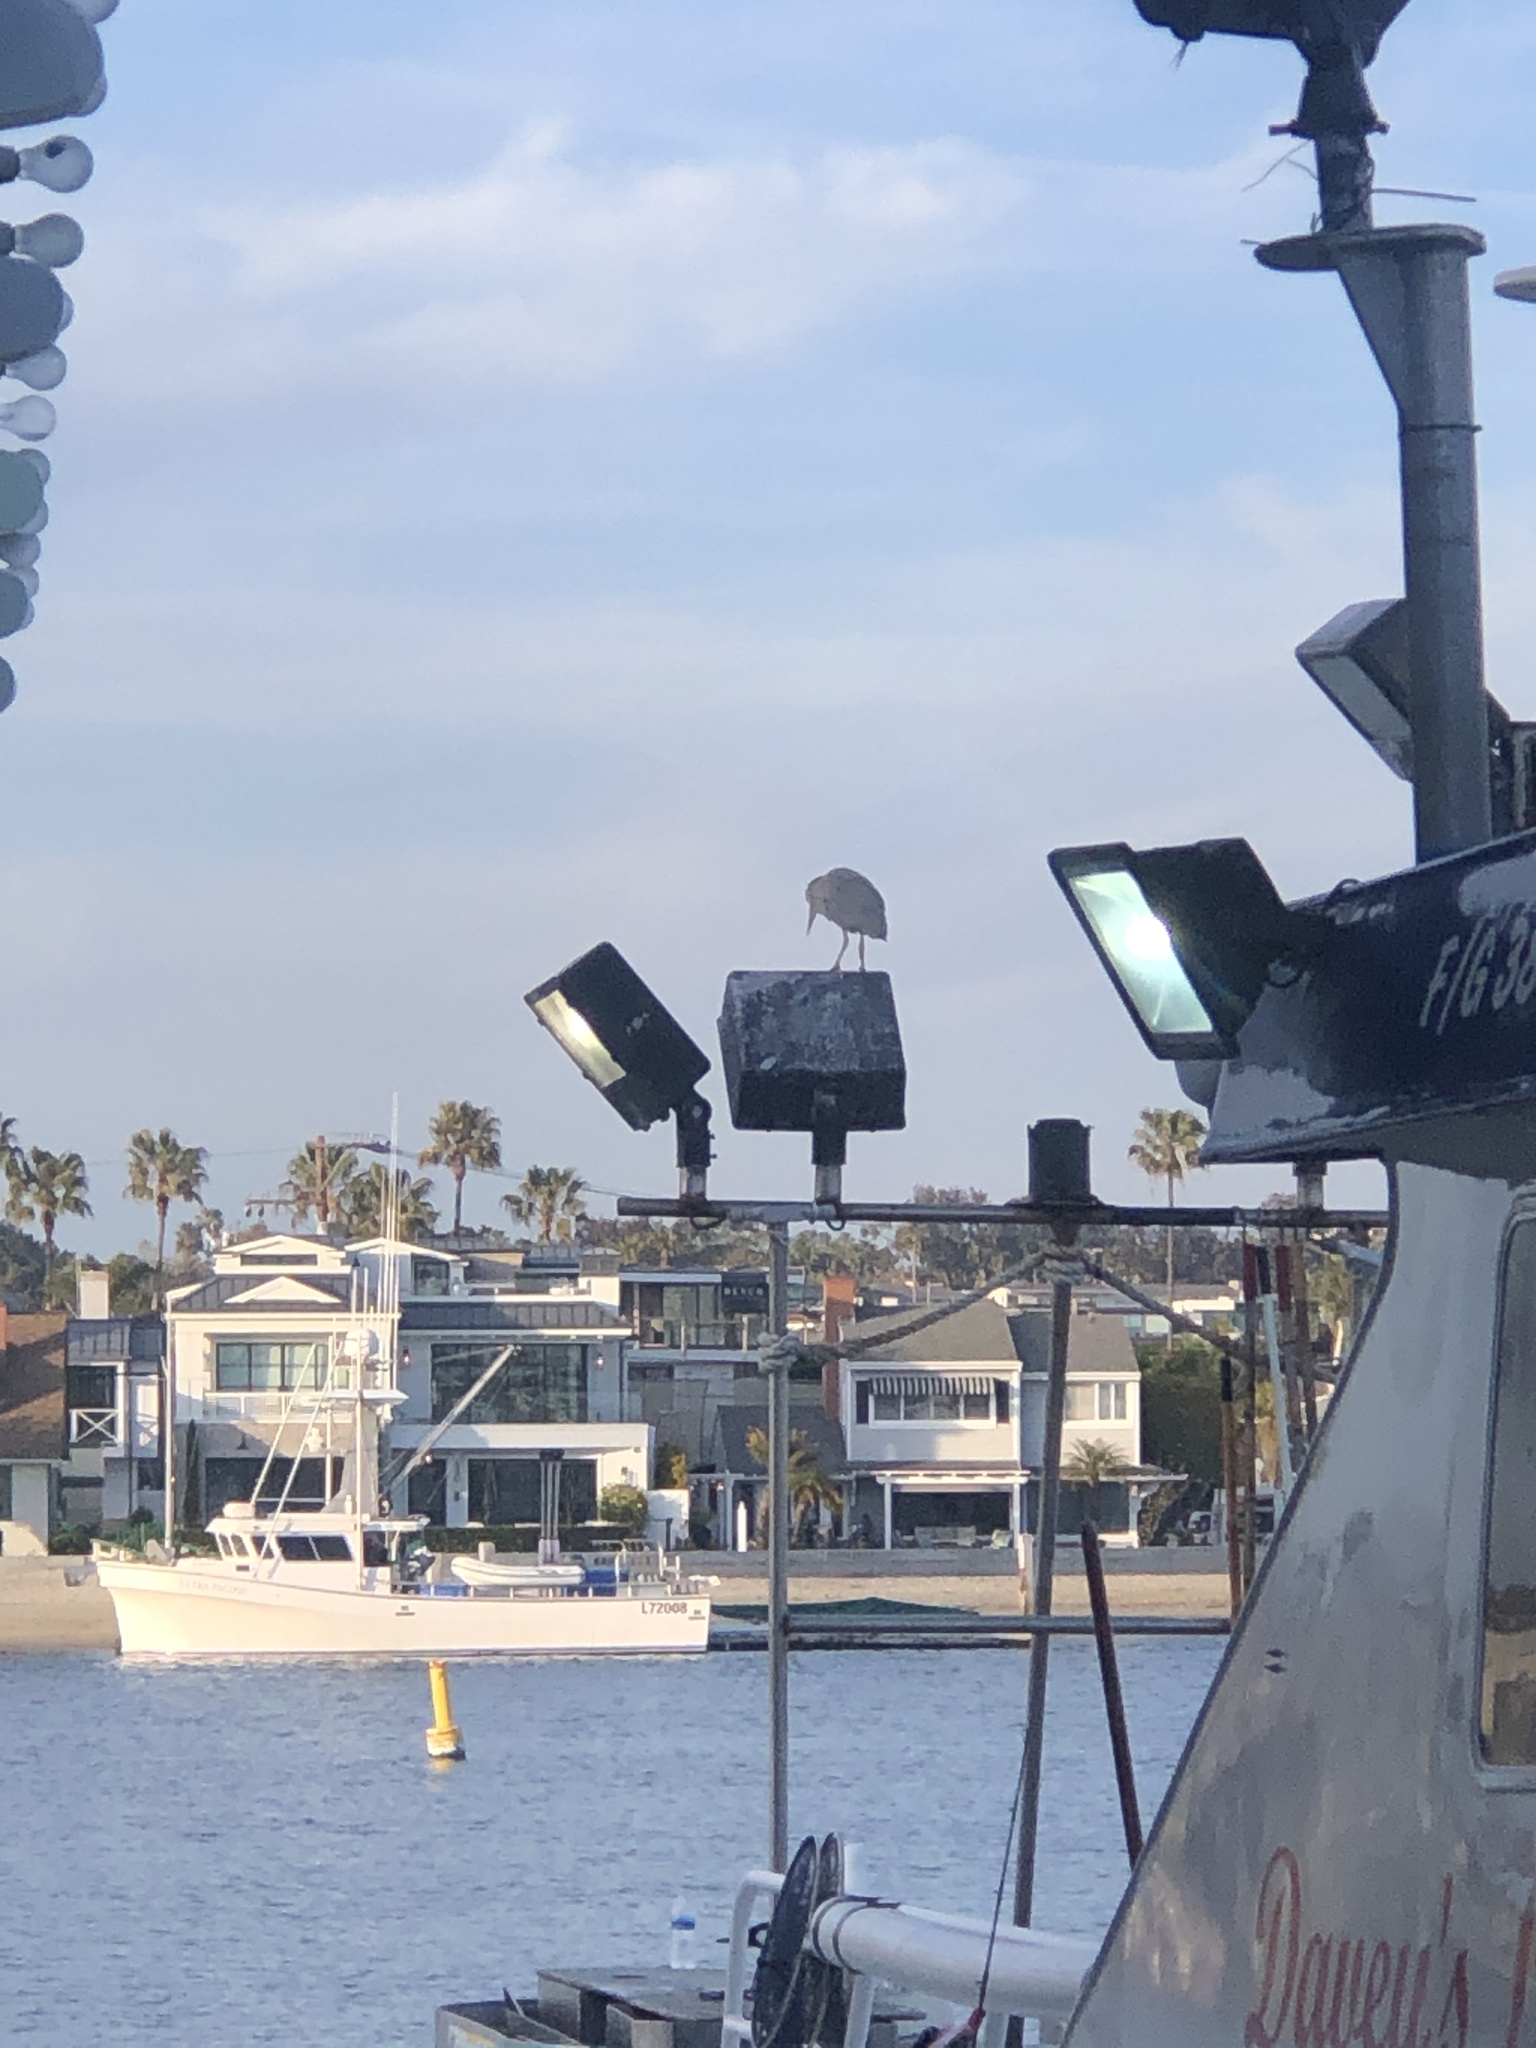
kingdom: Animalia
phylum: Chordata
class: Aves
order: Pelecaniformes
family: Ardeidae
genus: Ardea
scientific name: Ardea herodias
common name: Great blue heron
